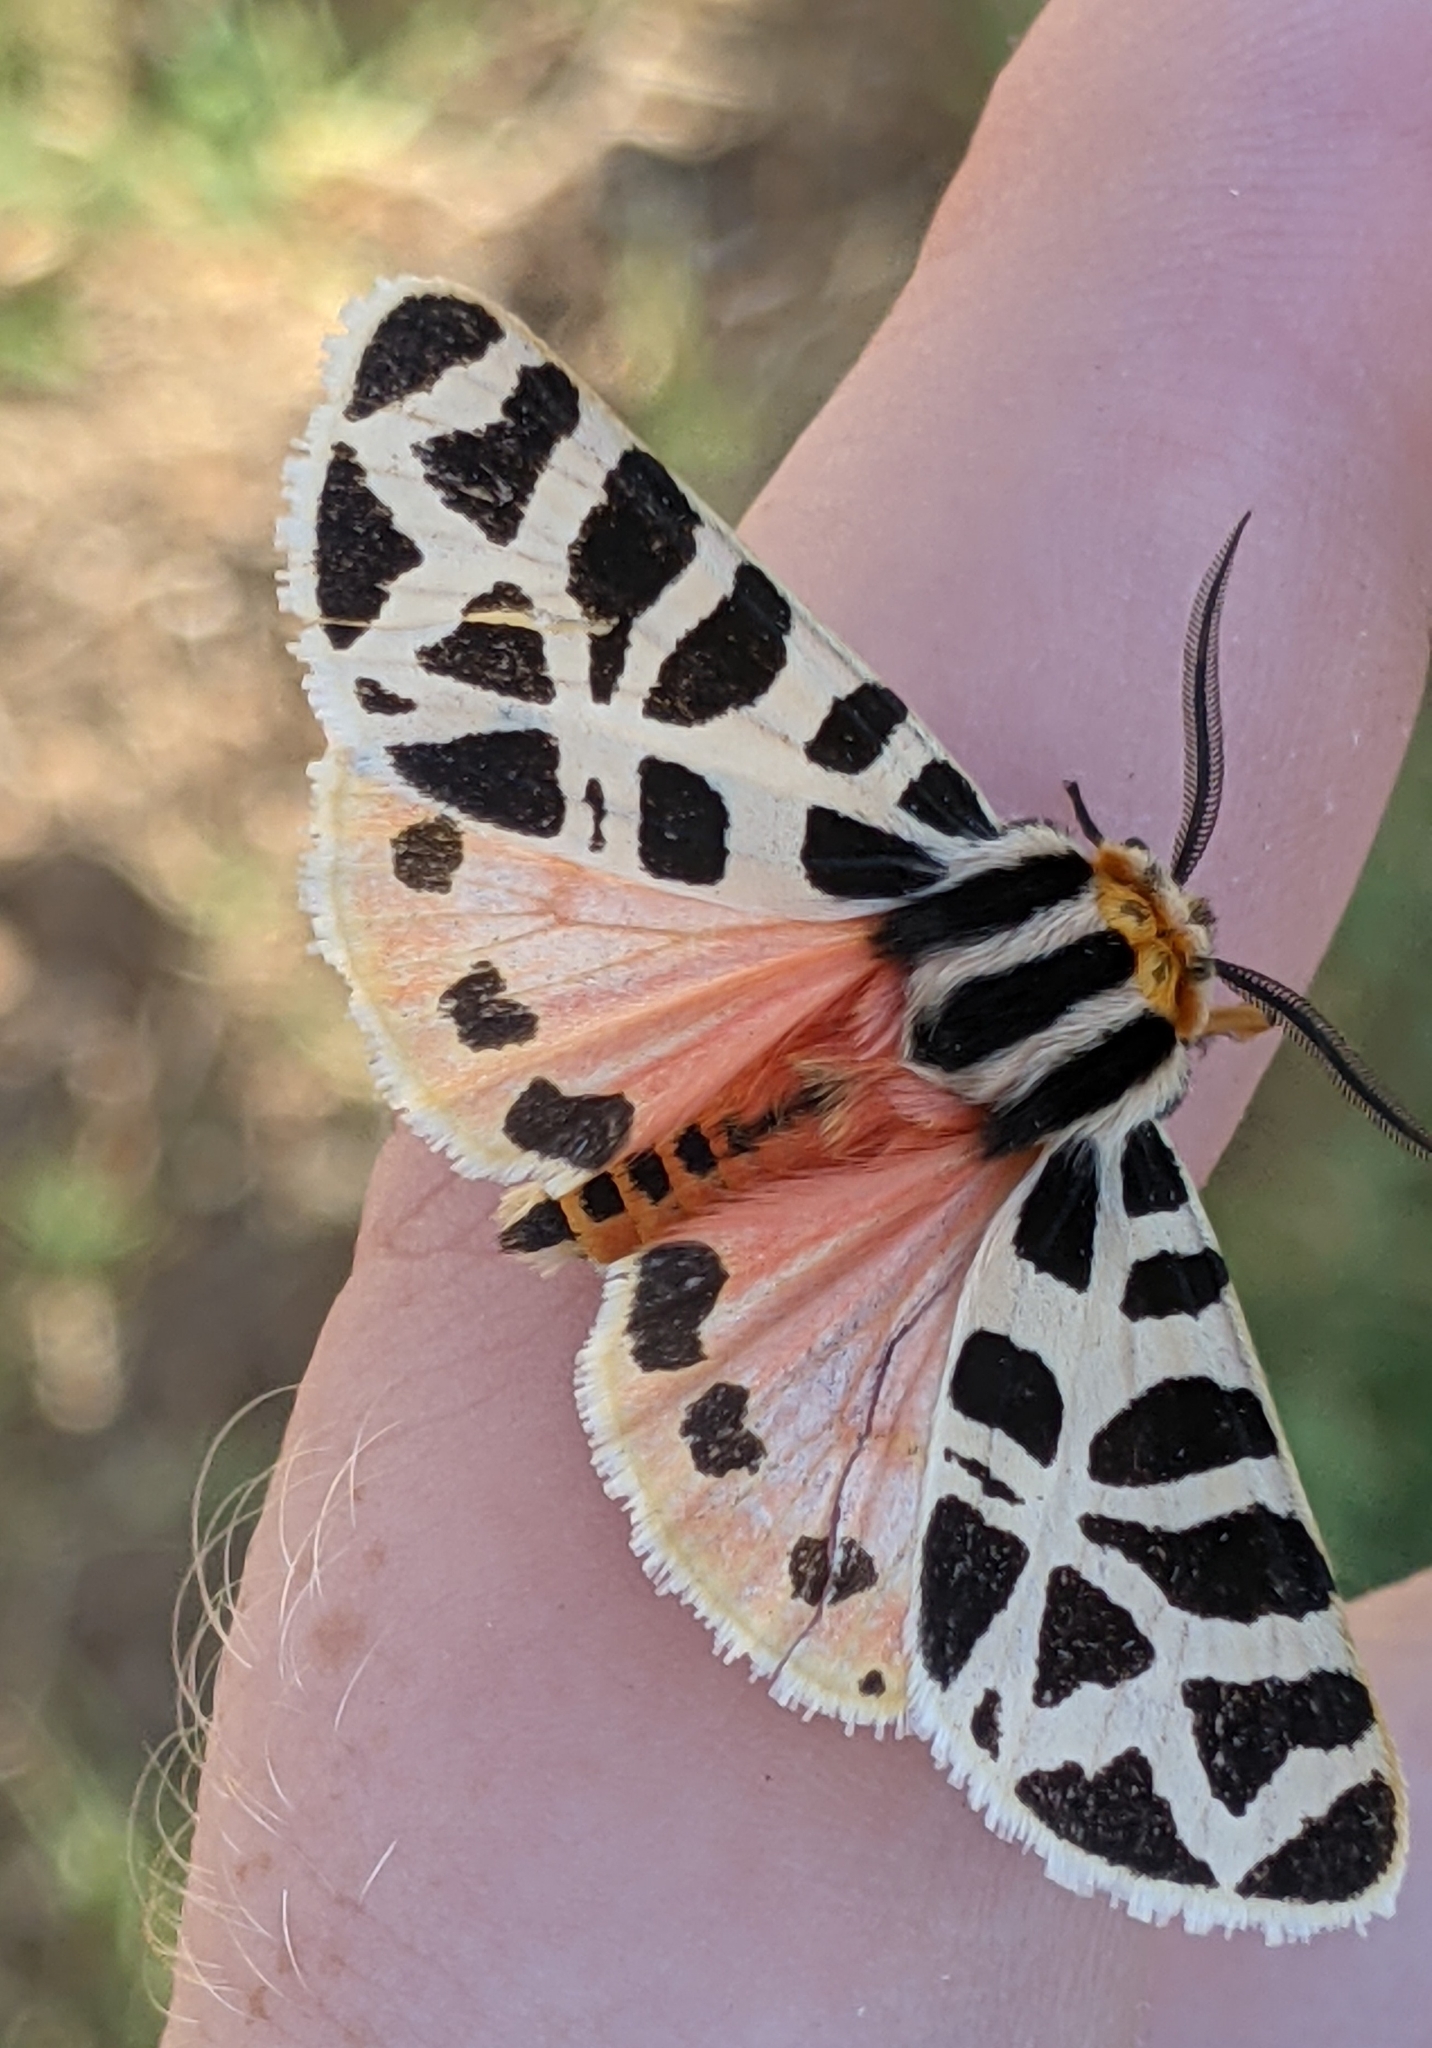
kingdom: Animalia
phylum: Arthropoda
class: Insecta
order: Lepidoptera
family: Erebidae
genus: Apantesis
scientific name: Apantesis incorrupta
